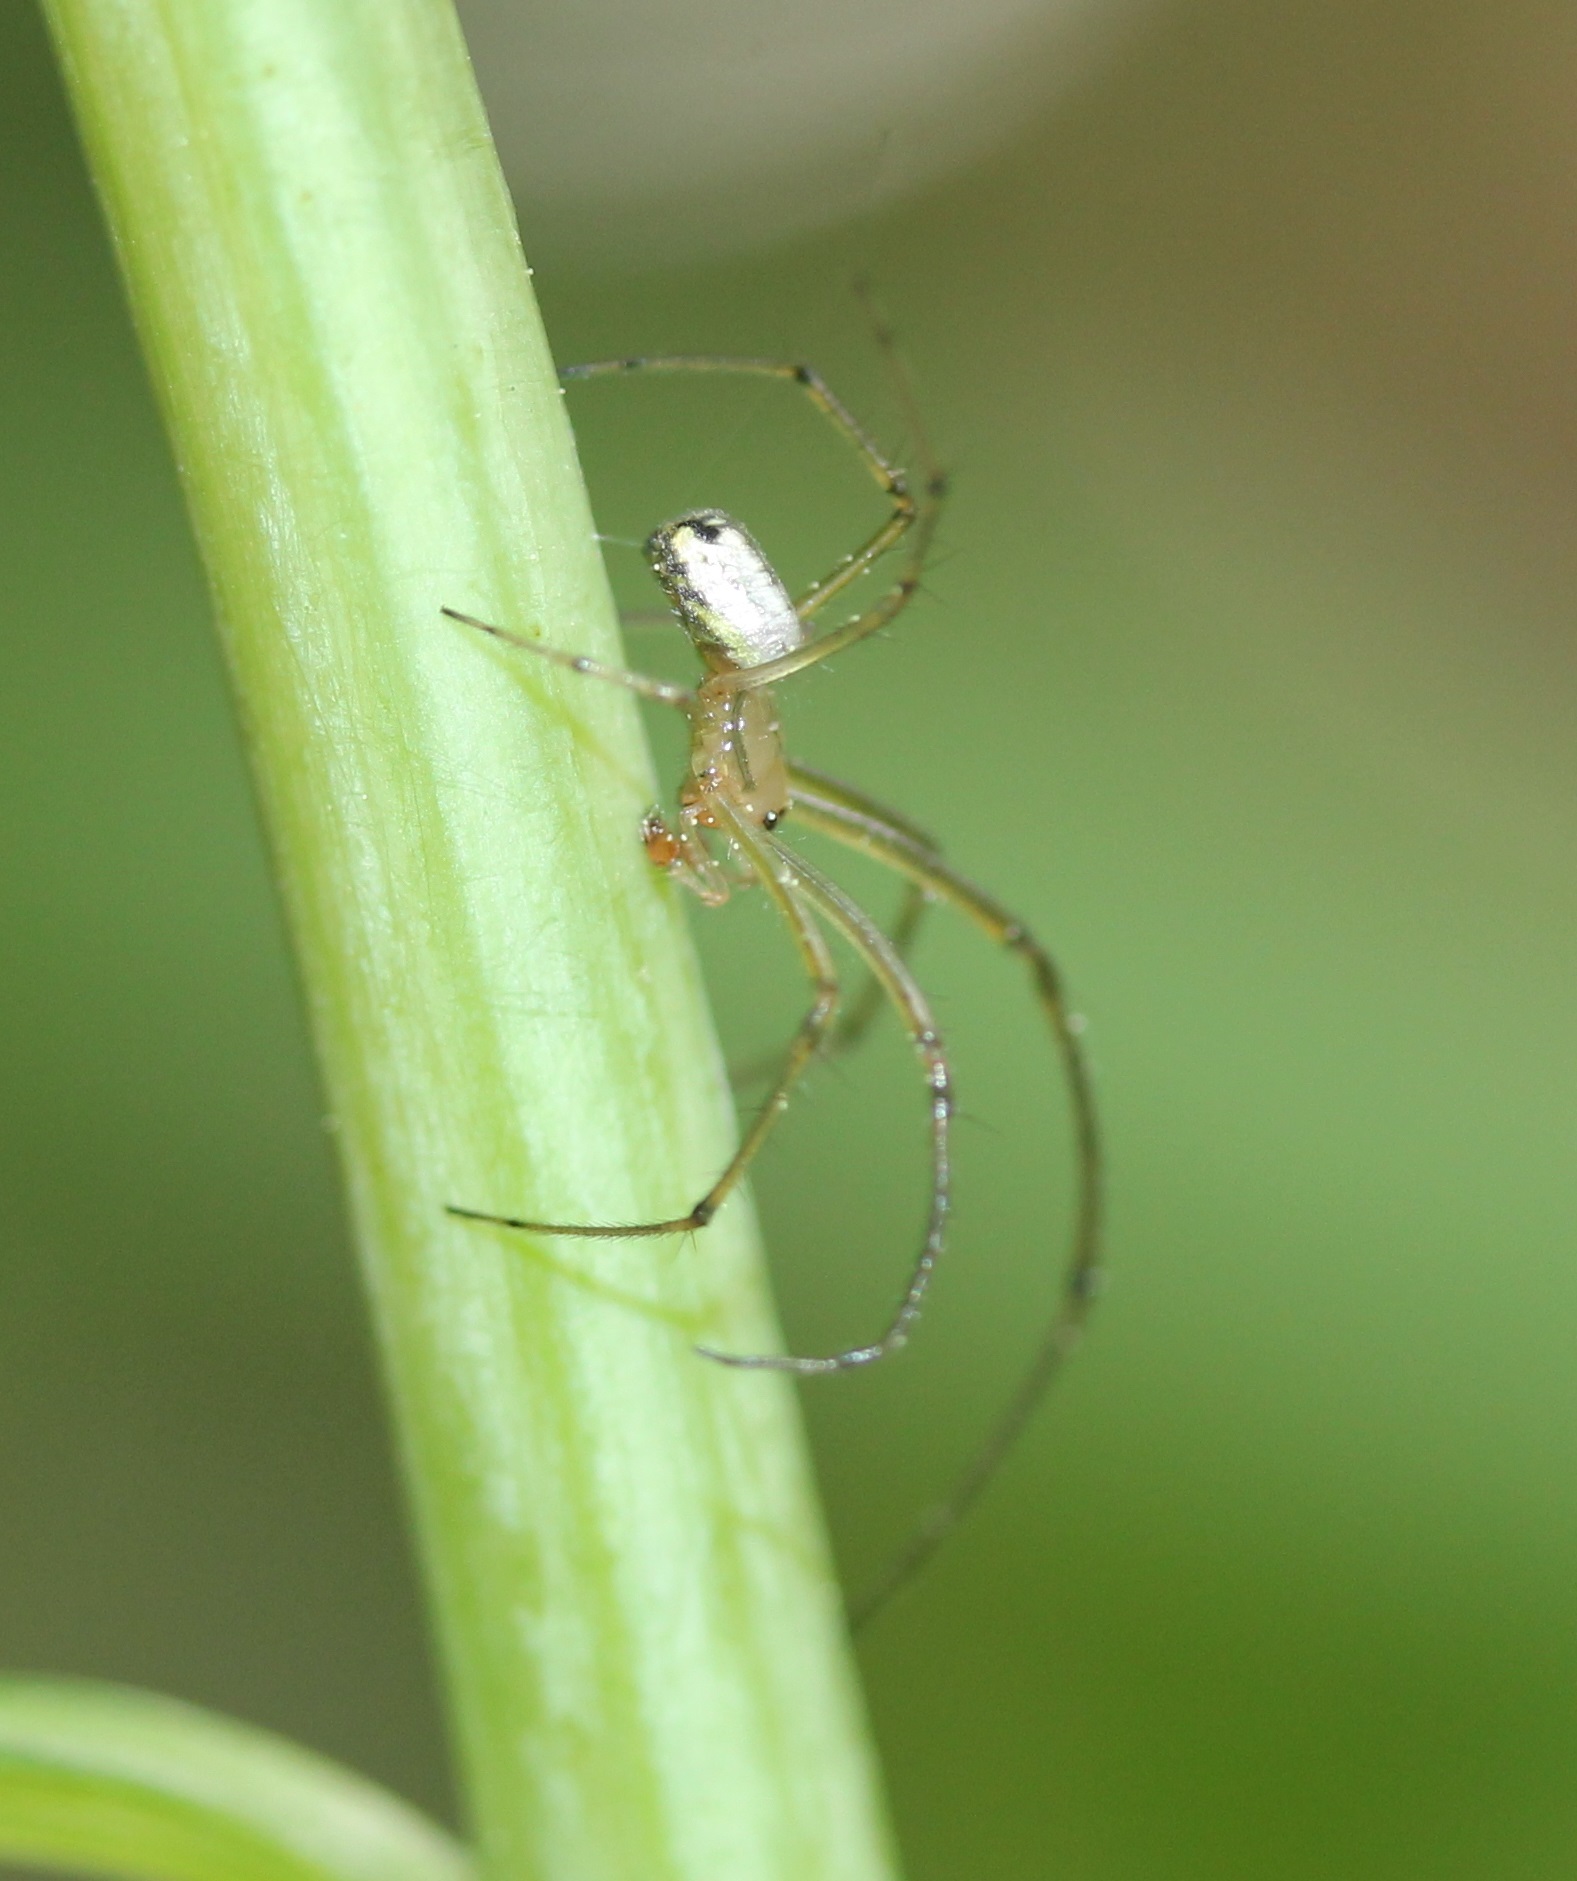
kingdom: Animalia
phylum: Arthropoda
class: Arachnida
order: Araneae
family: Tetragnathidae
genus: Leucauge
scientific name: Leucauge venusta
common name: Longjawed orb weavers
